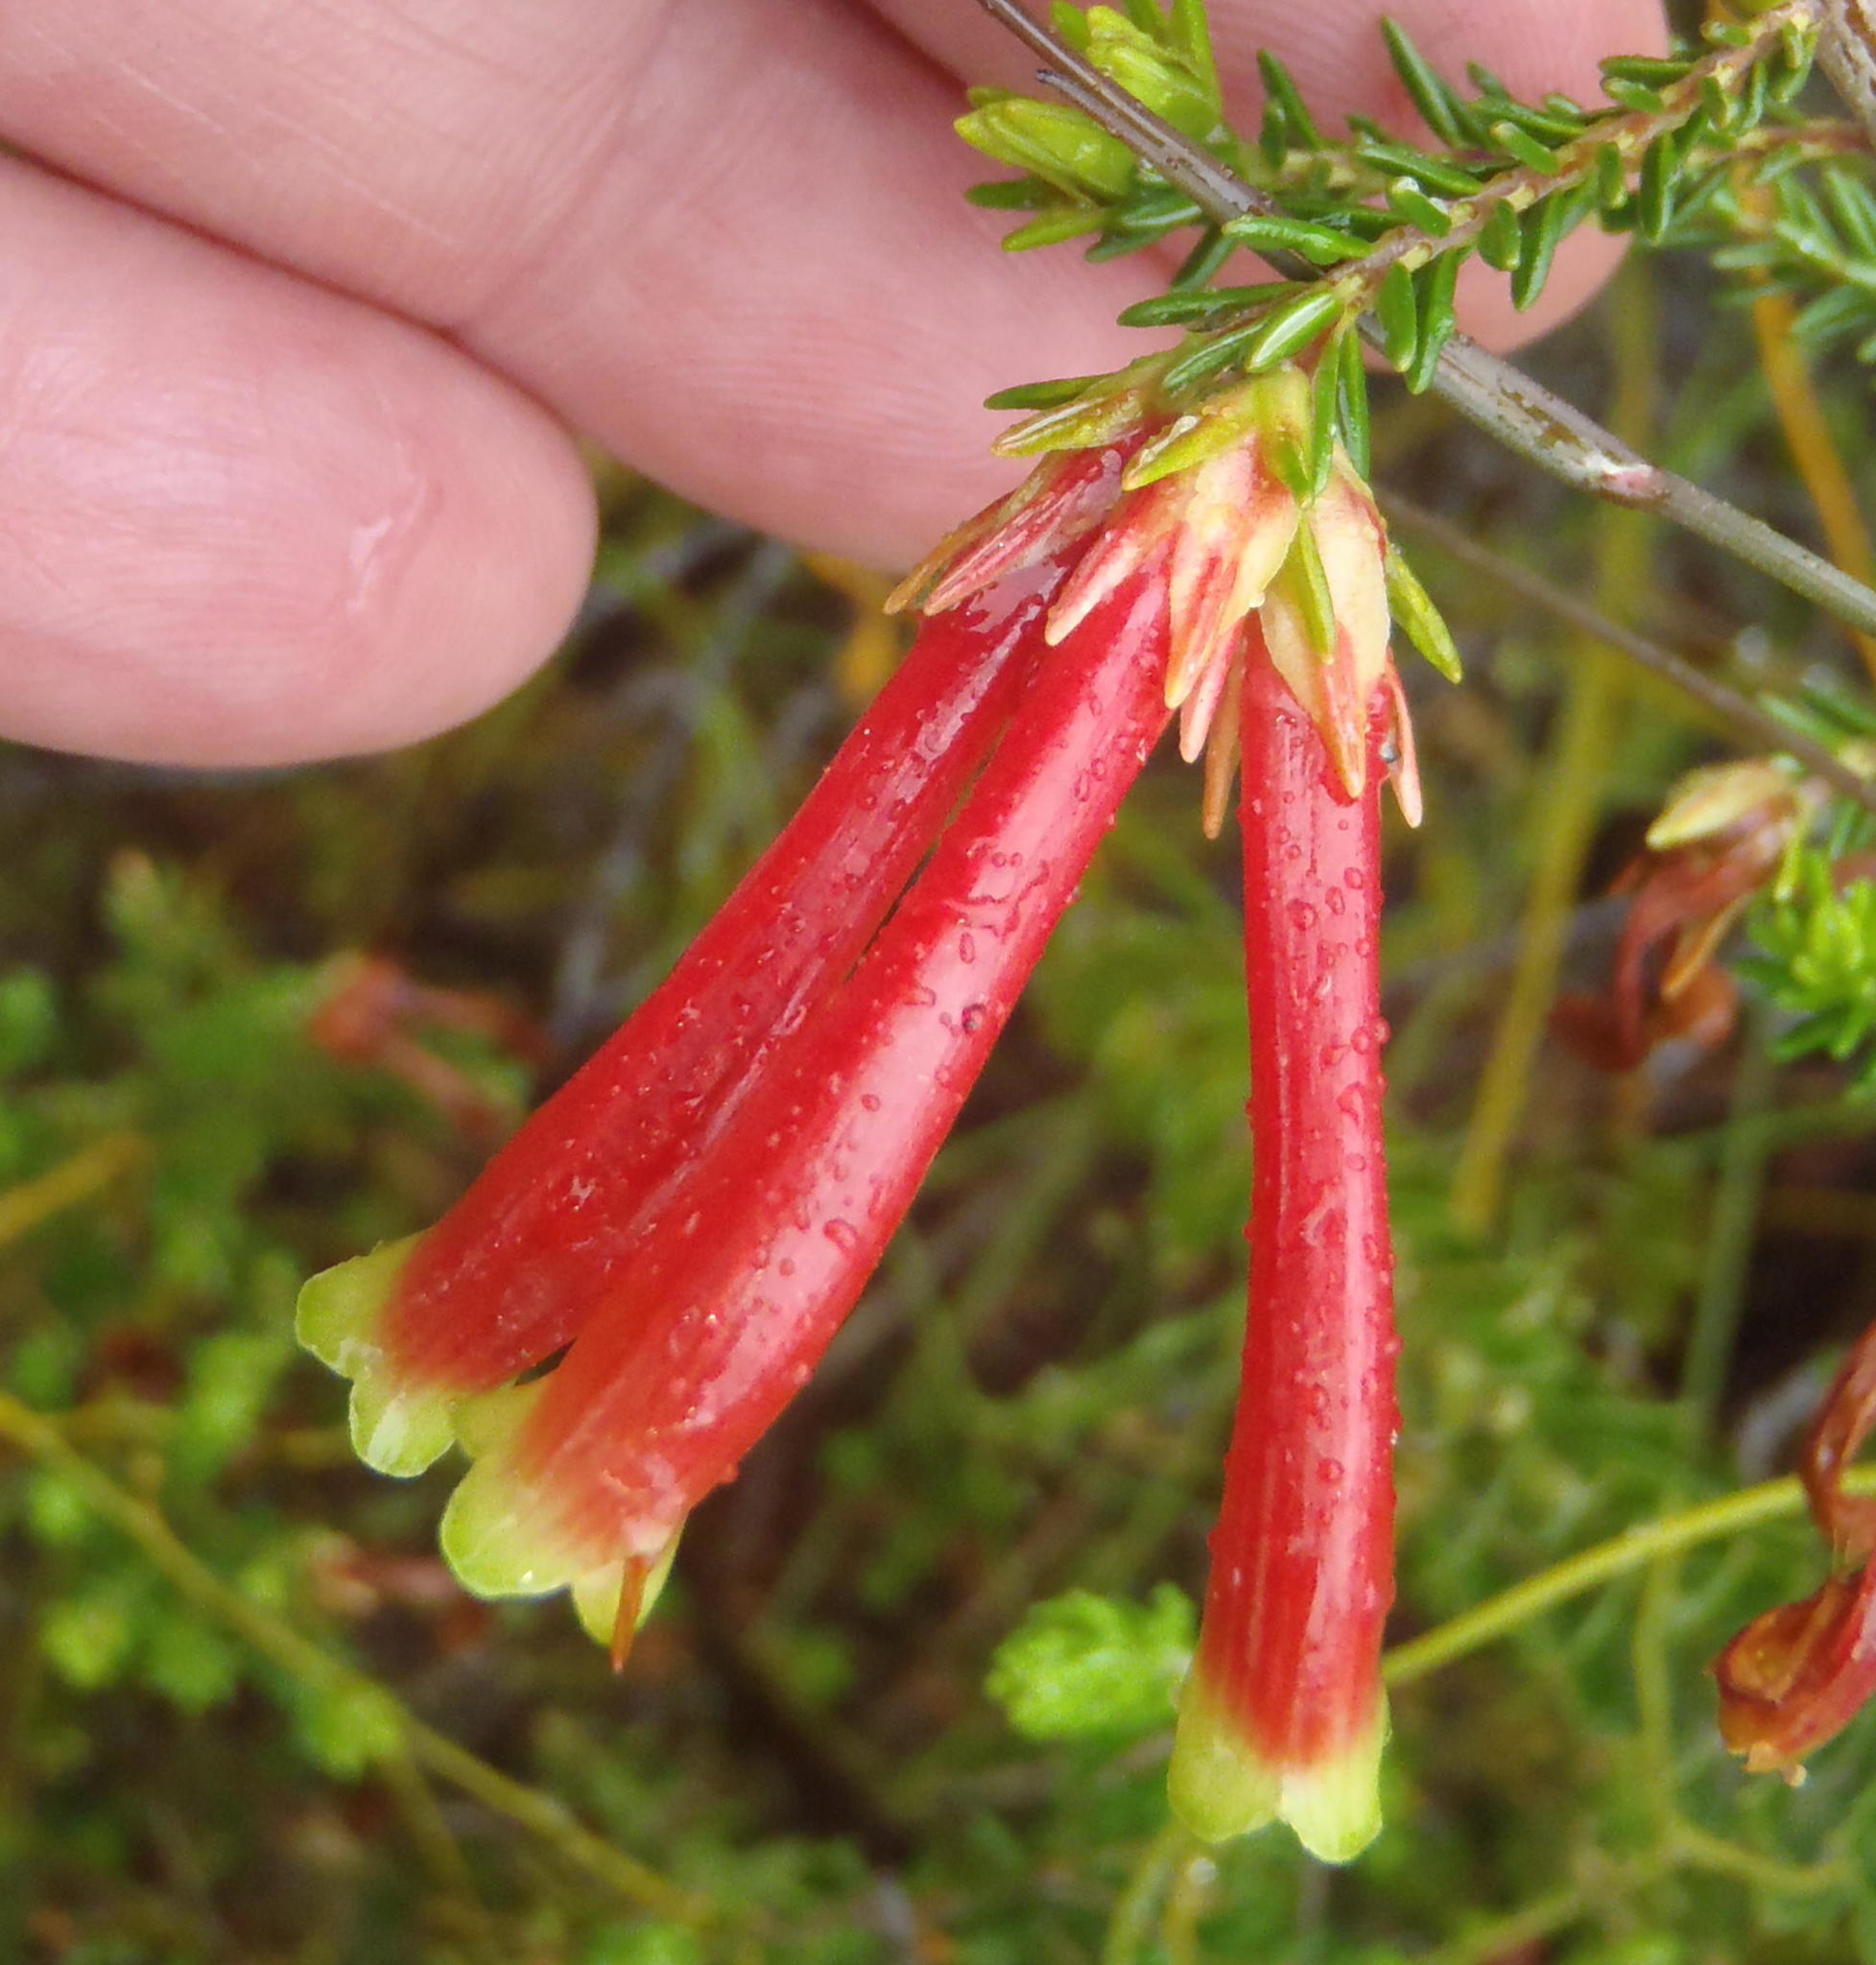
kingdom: Plantae
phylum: Tracheophyta
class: Magnoliopsida
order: Ericales
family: Ericaceae
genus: Erica
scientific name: Erica discolor
